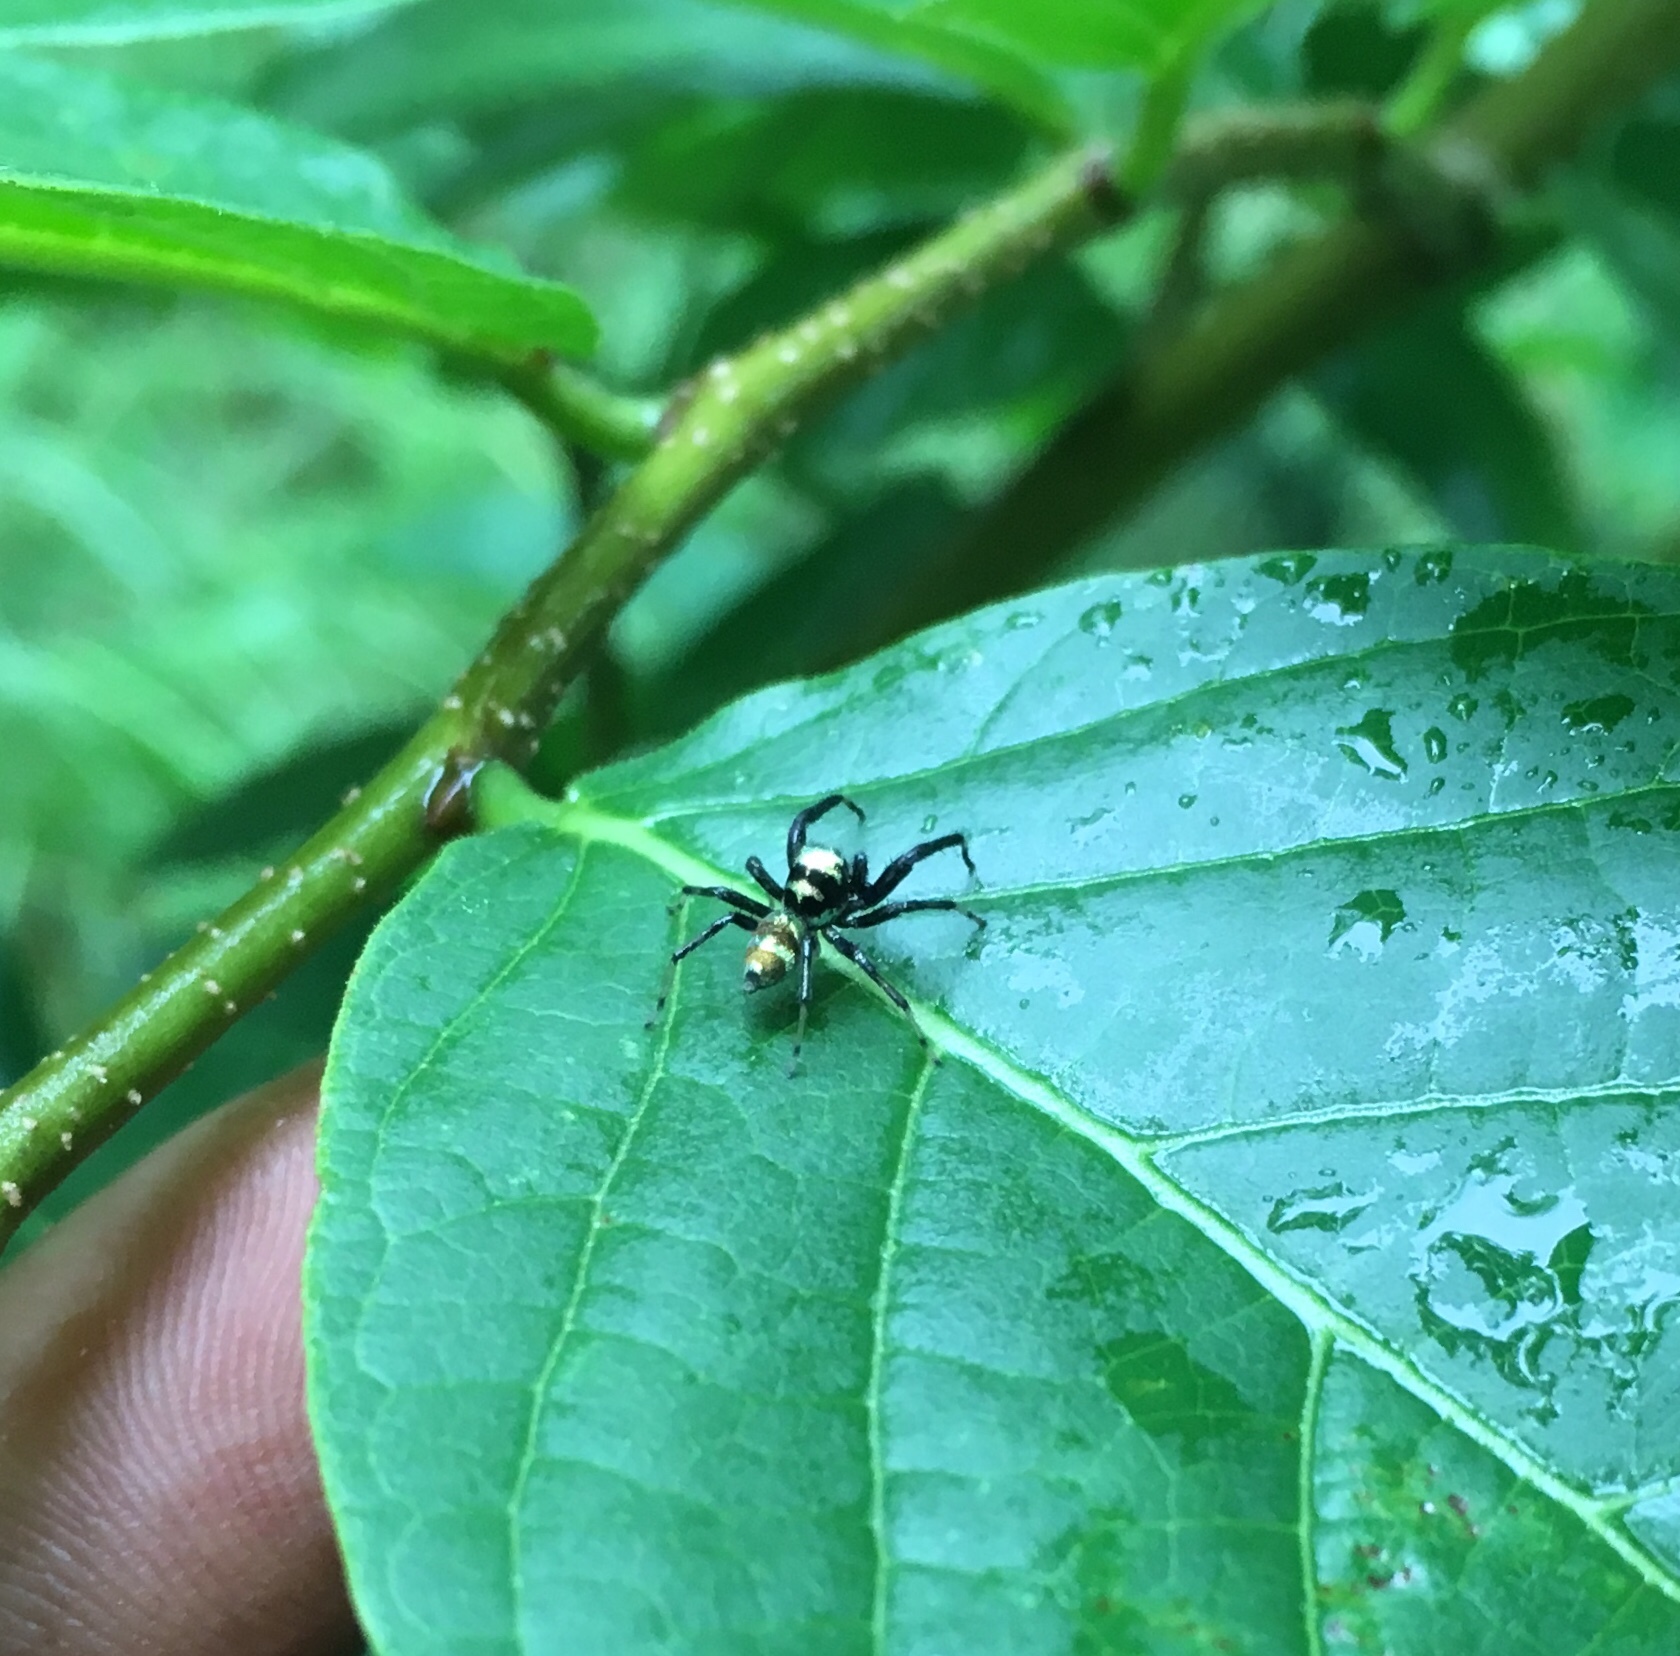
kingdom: Animalia
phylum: Arthropoda
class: Arachnida
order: Araneae
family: Salticidae
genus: Phintella
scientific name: Phintella vittata
